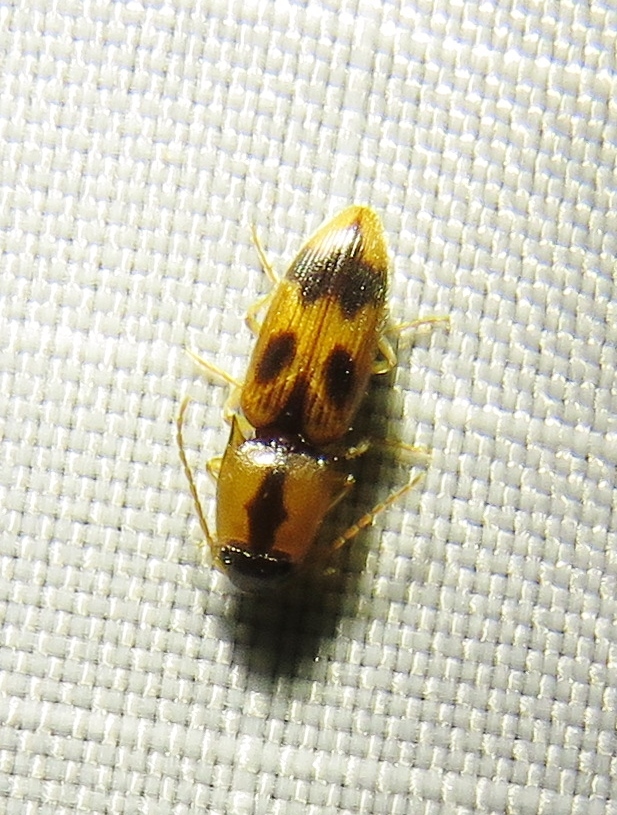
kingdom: Animalia
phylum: Arthropoda
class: Insecta
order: Coleoptera
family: Elateridae
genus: Aeolus
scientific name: Aeolus mellillus
